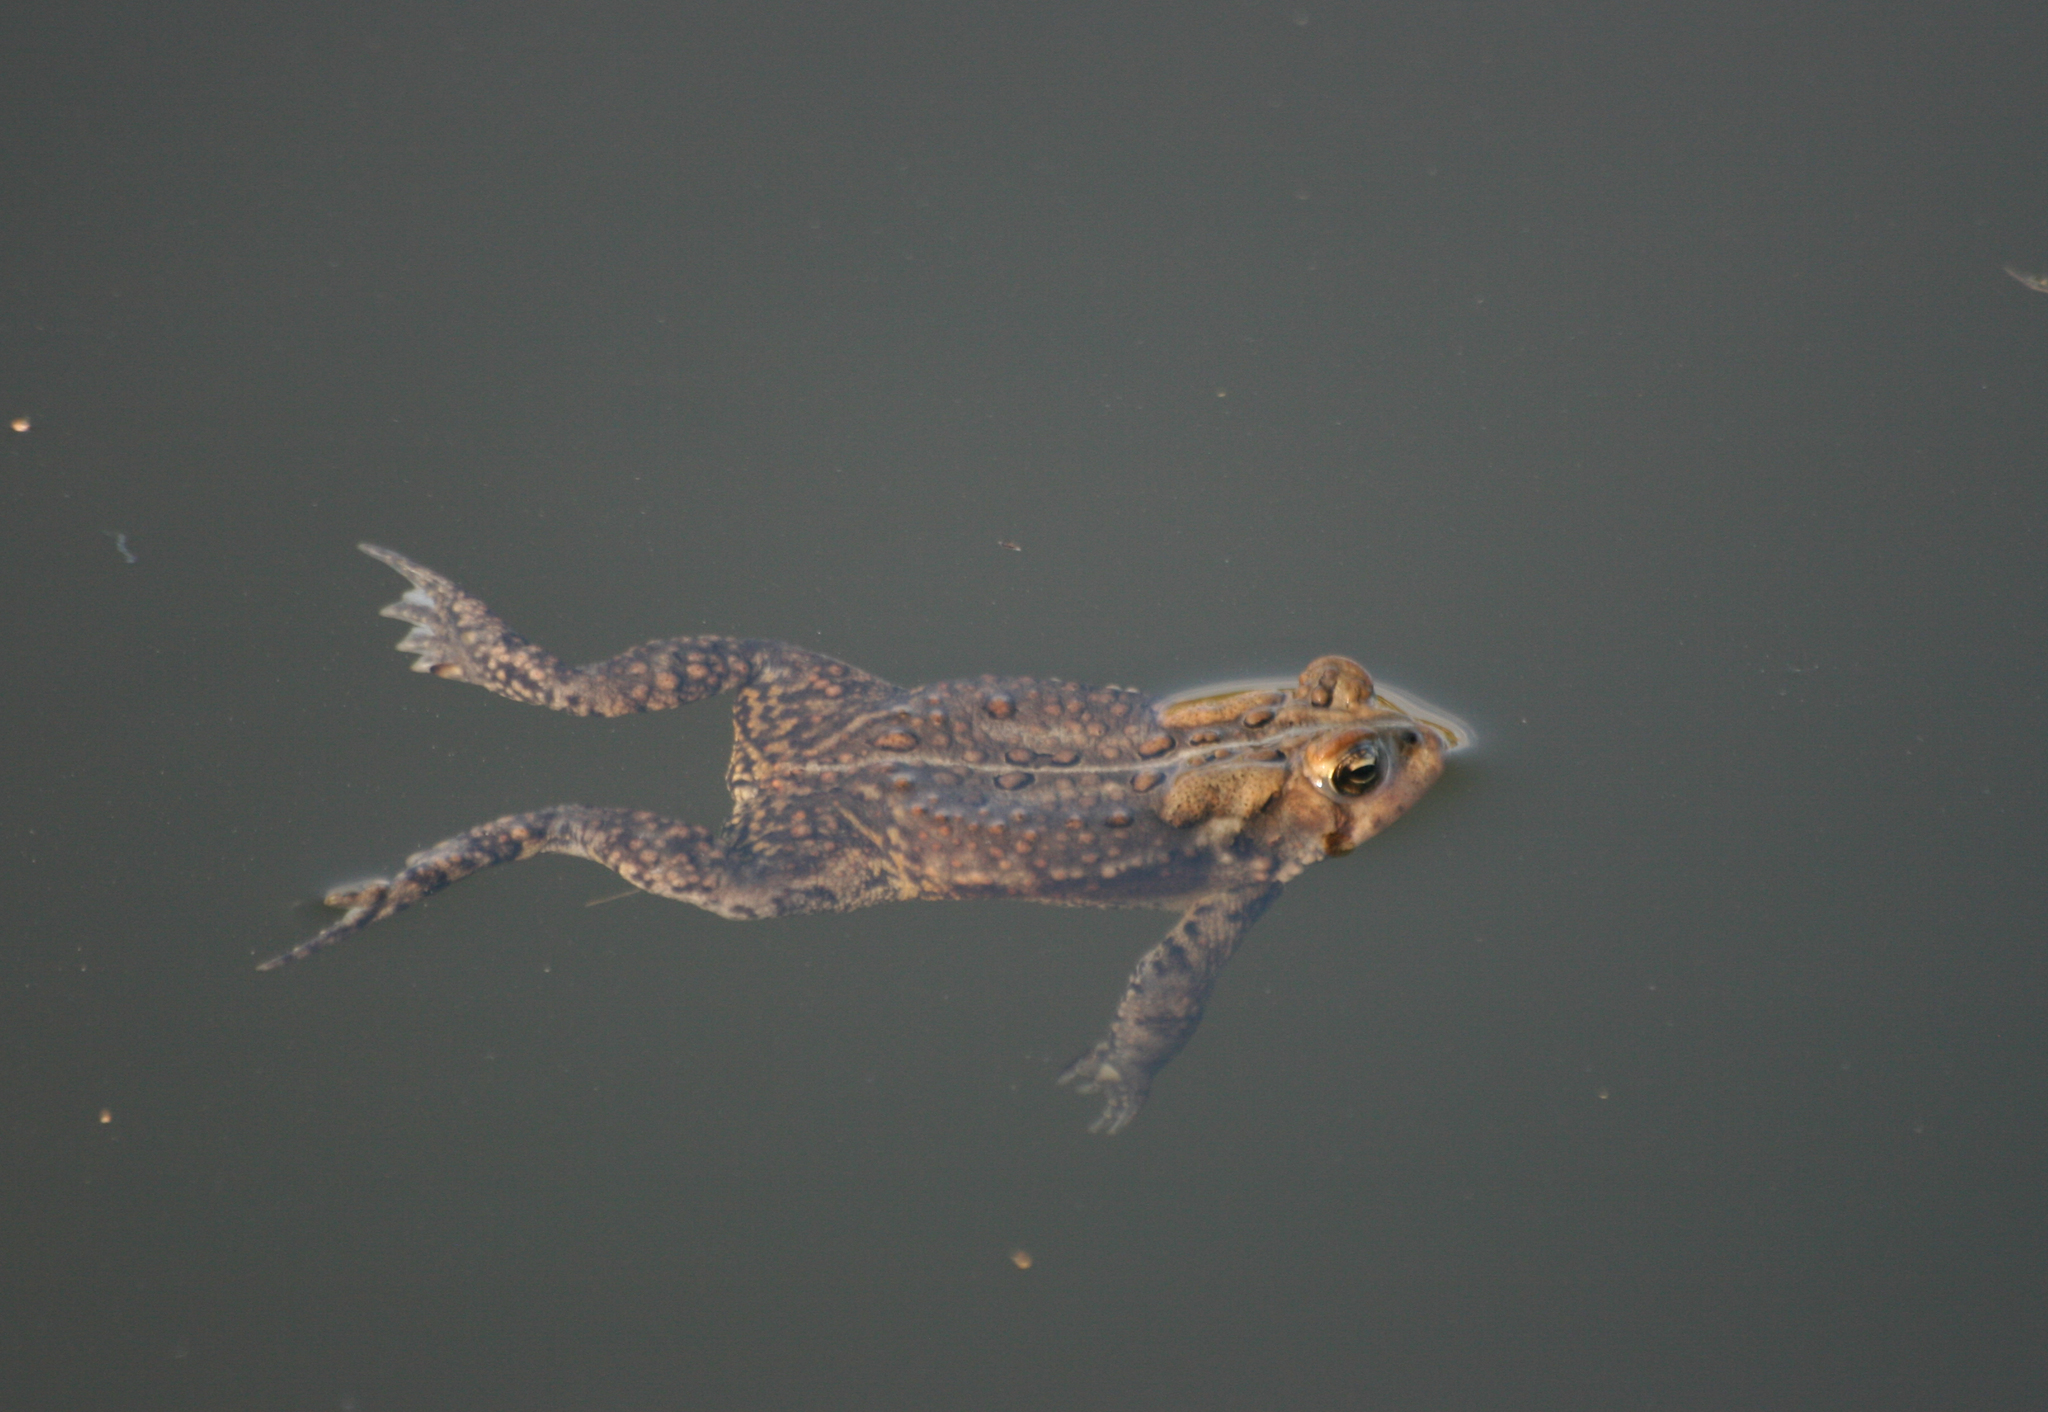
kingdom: Animalia
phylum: Chordata
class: Amphibia
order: Anura
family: Bufonidae
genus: Anaxyrus
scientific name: Anaxyrus americanus
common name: American toad
